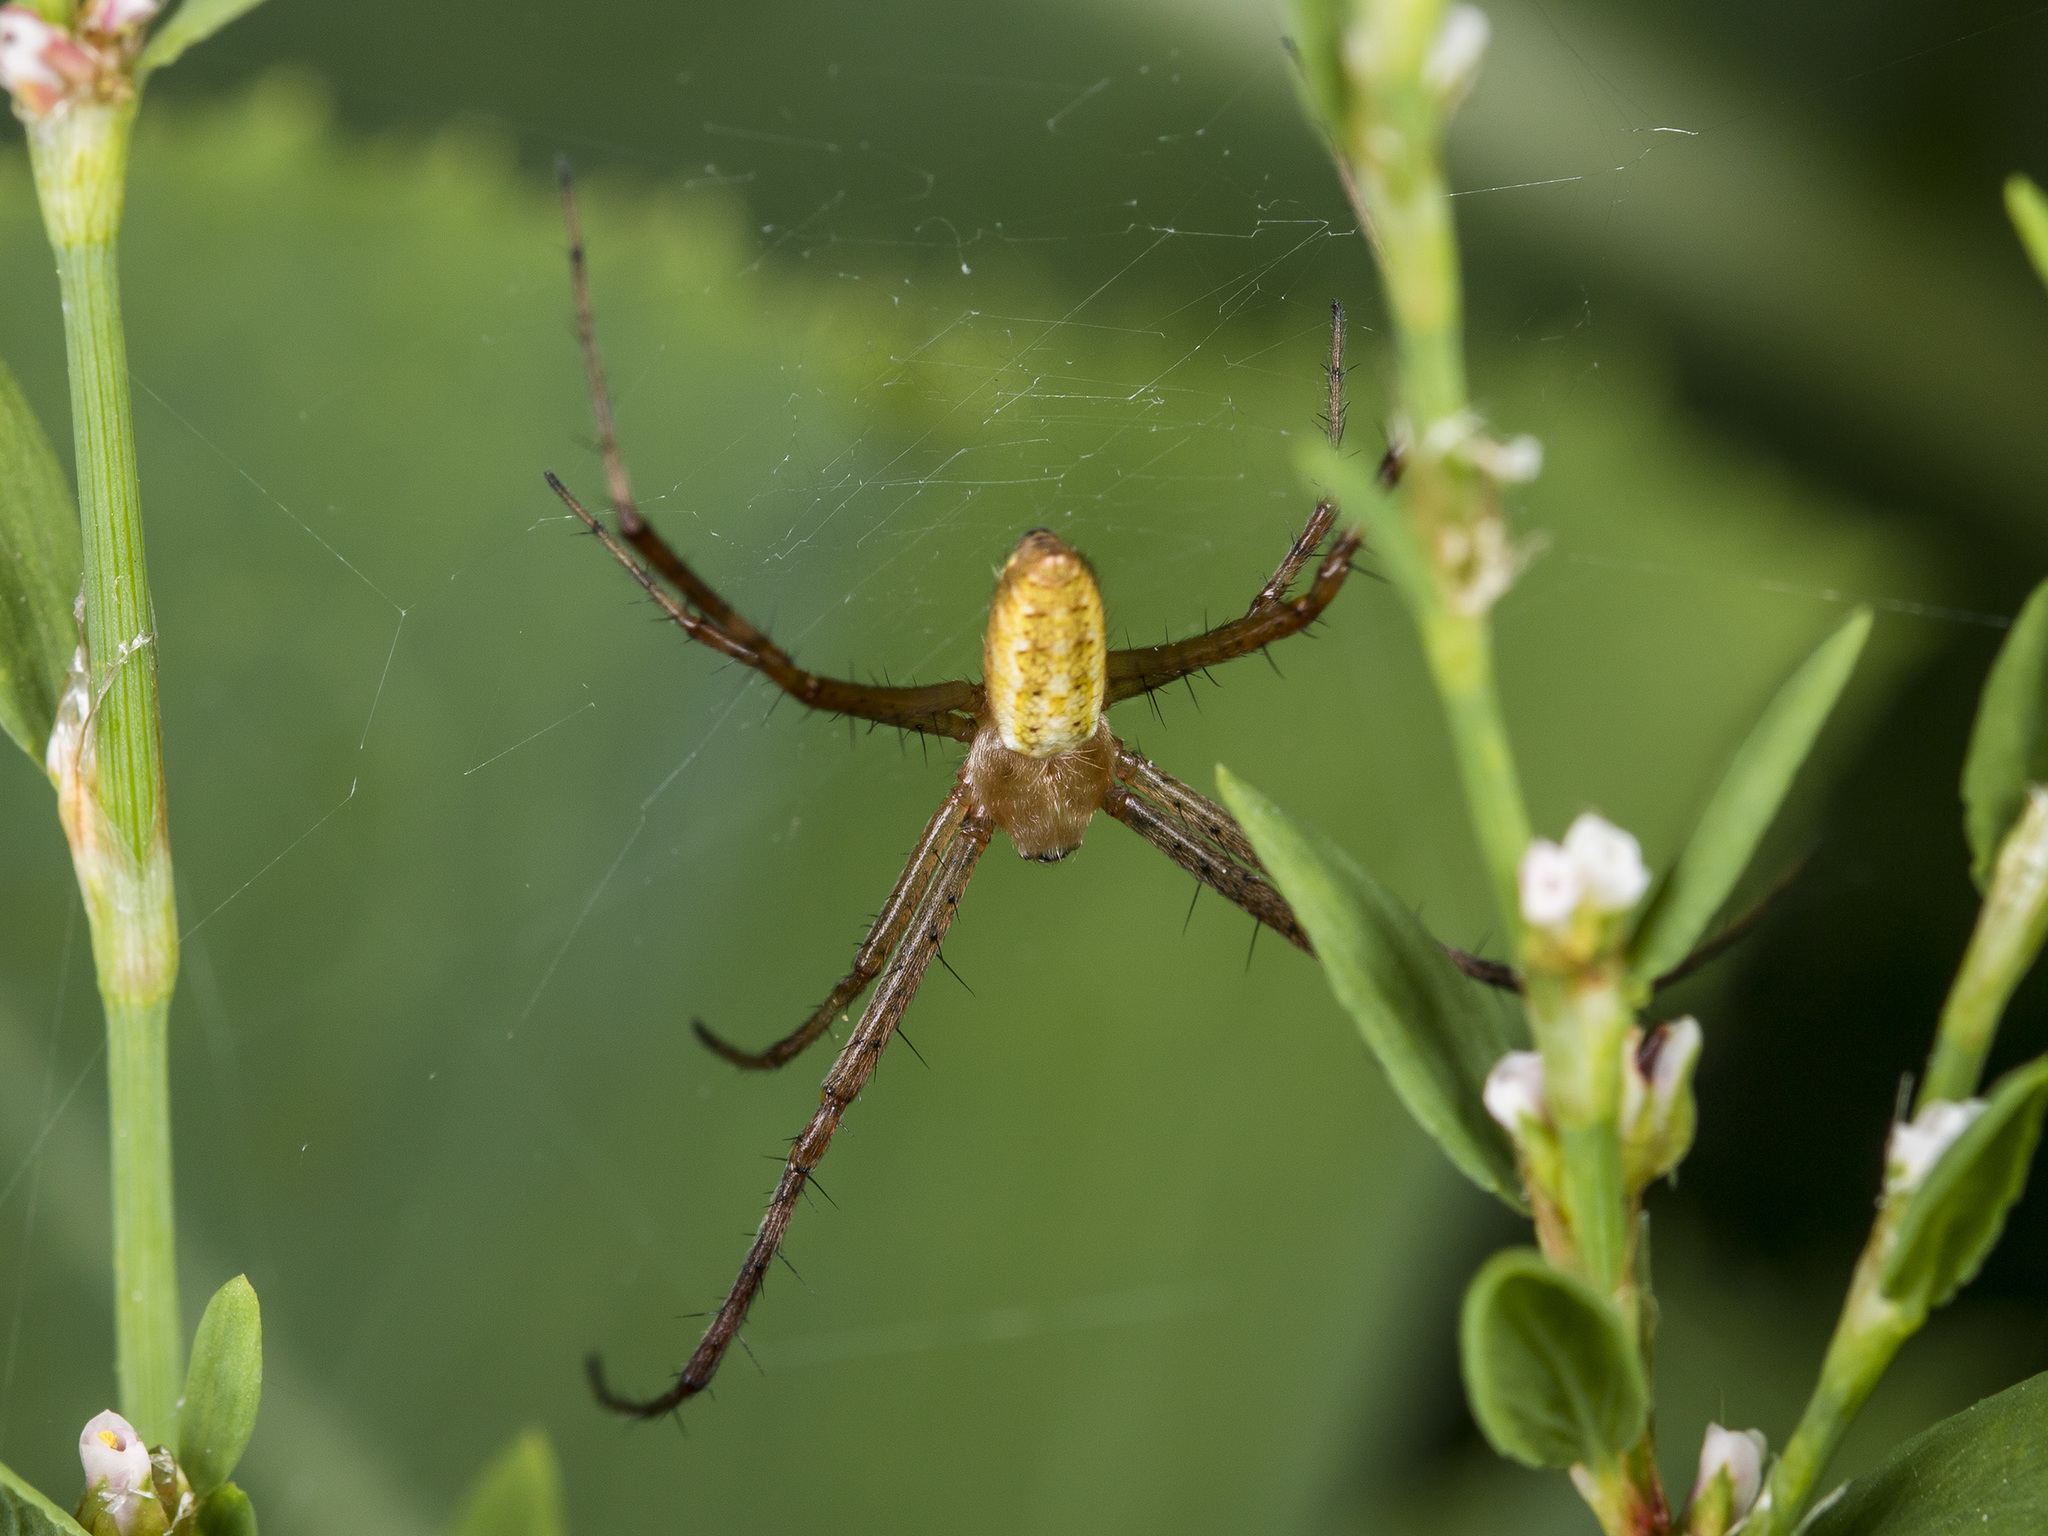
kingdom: Animalia
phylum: Arthropoda
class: Arachnida
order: Araneae
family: Araneidae
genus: Argiope
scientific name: Argiope bruennichi
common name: Wasp spider
